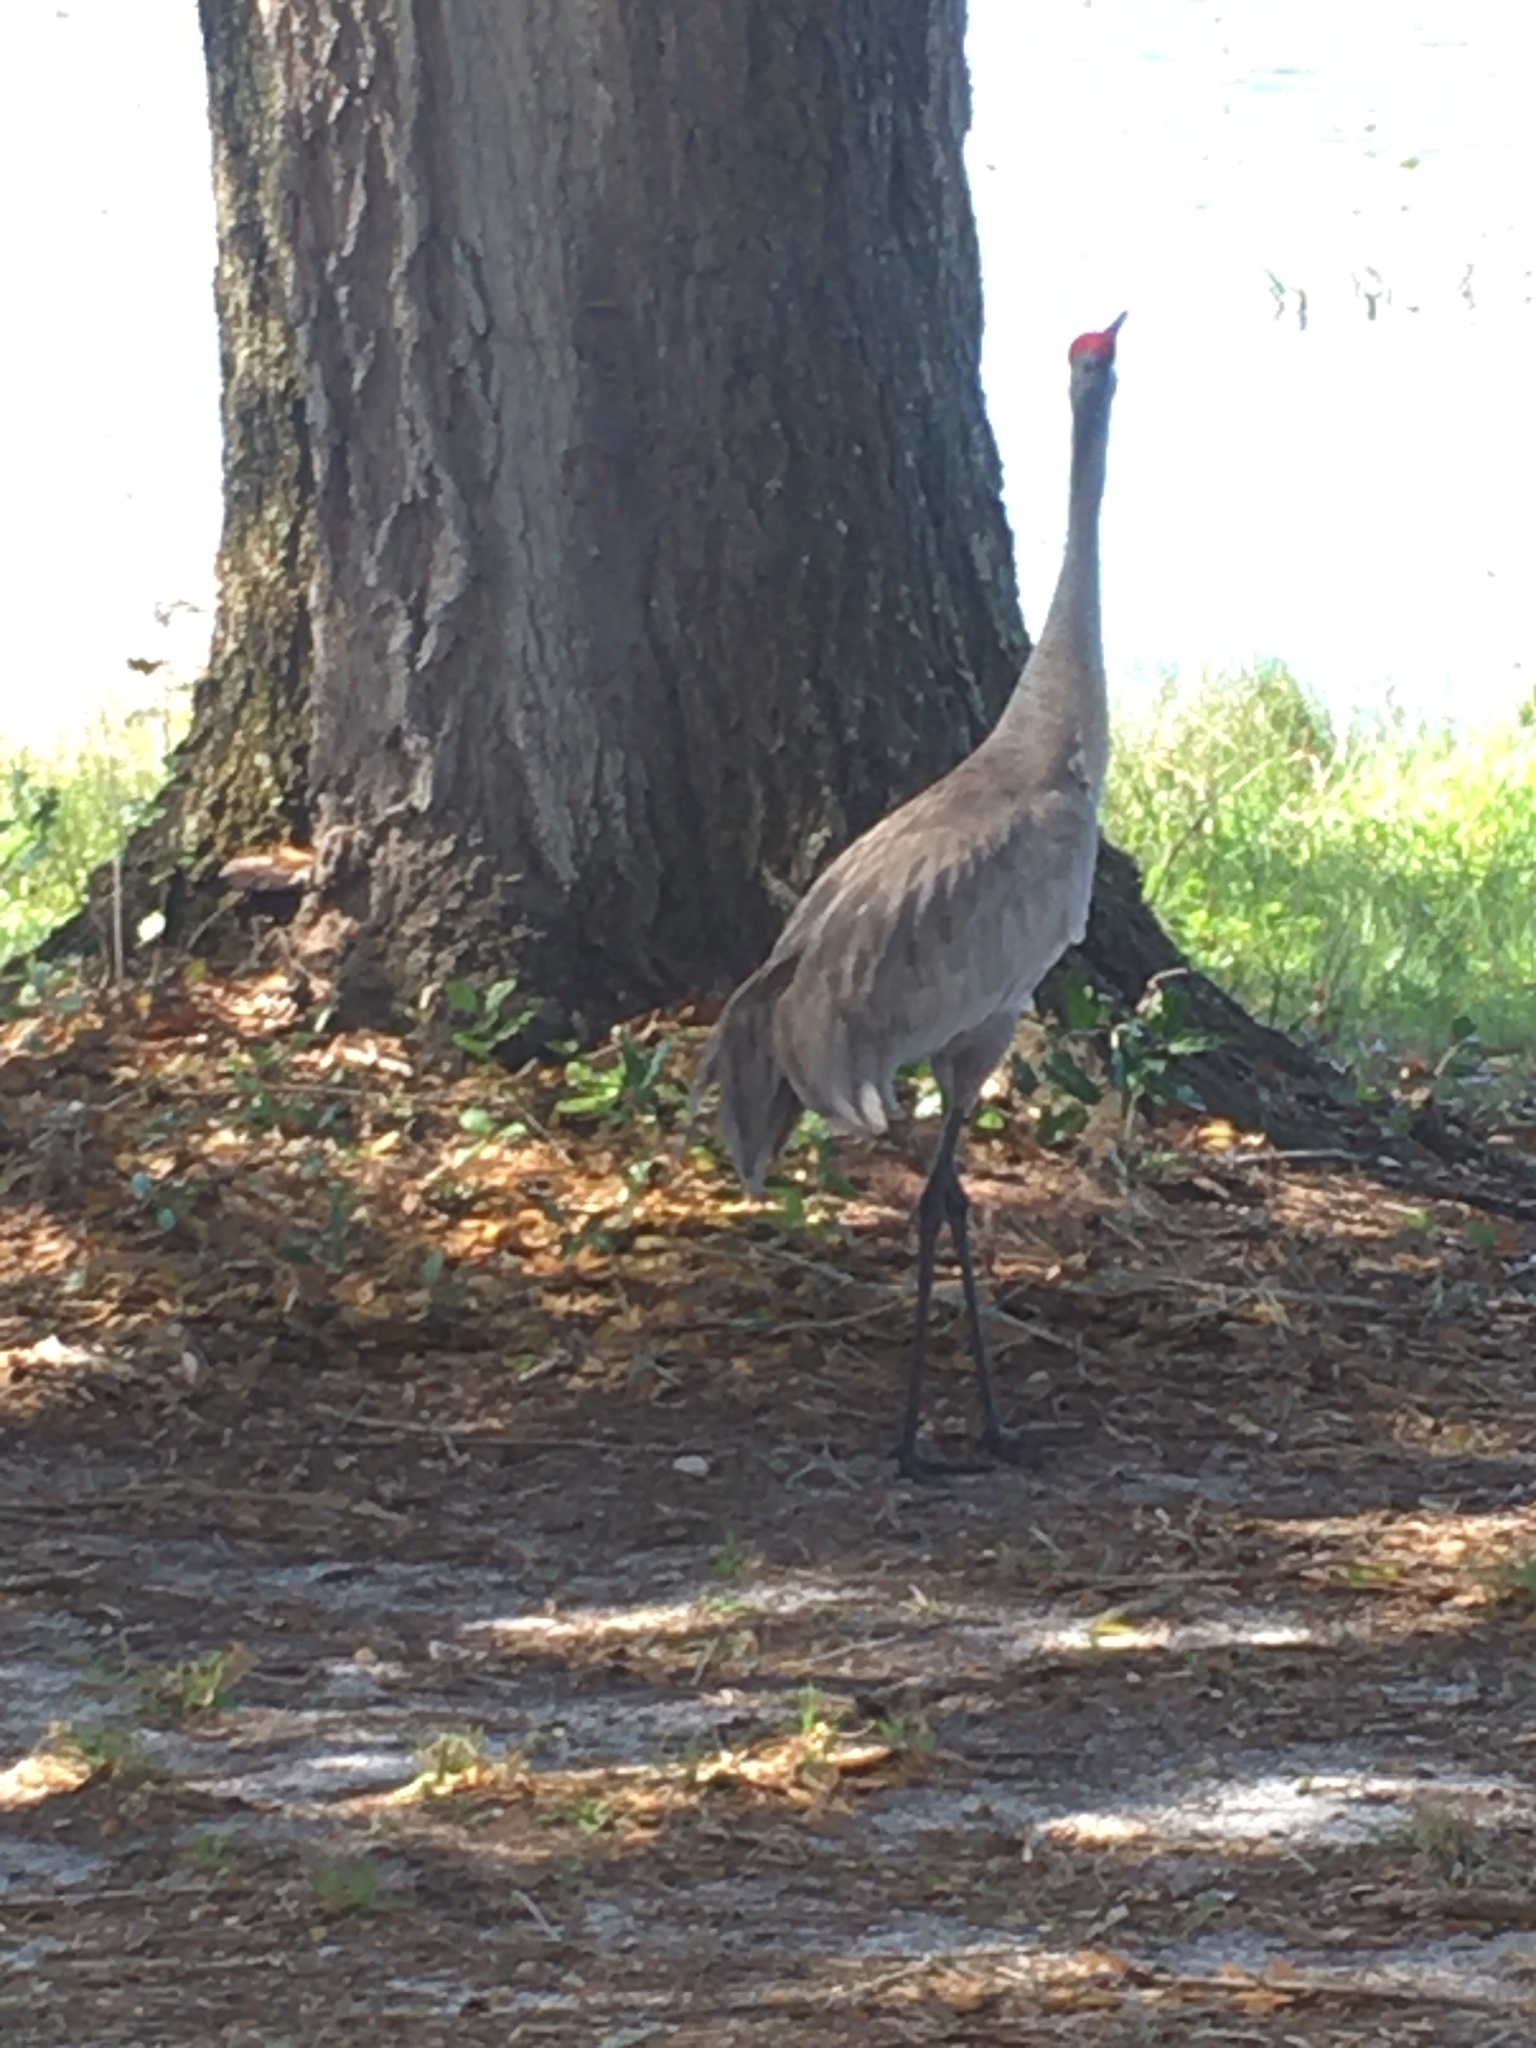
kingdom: Animalia
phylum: Chordata
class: Aves
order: Gruiformes
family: Gruidae
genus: Grus
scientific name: Grus canadensis
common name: Sandhill crane
